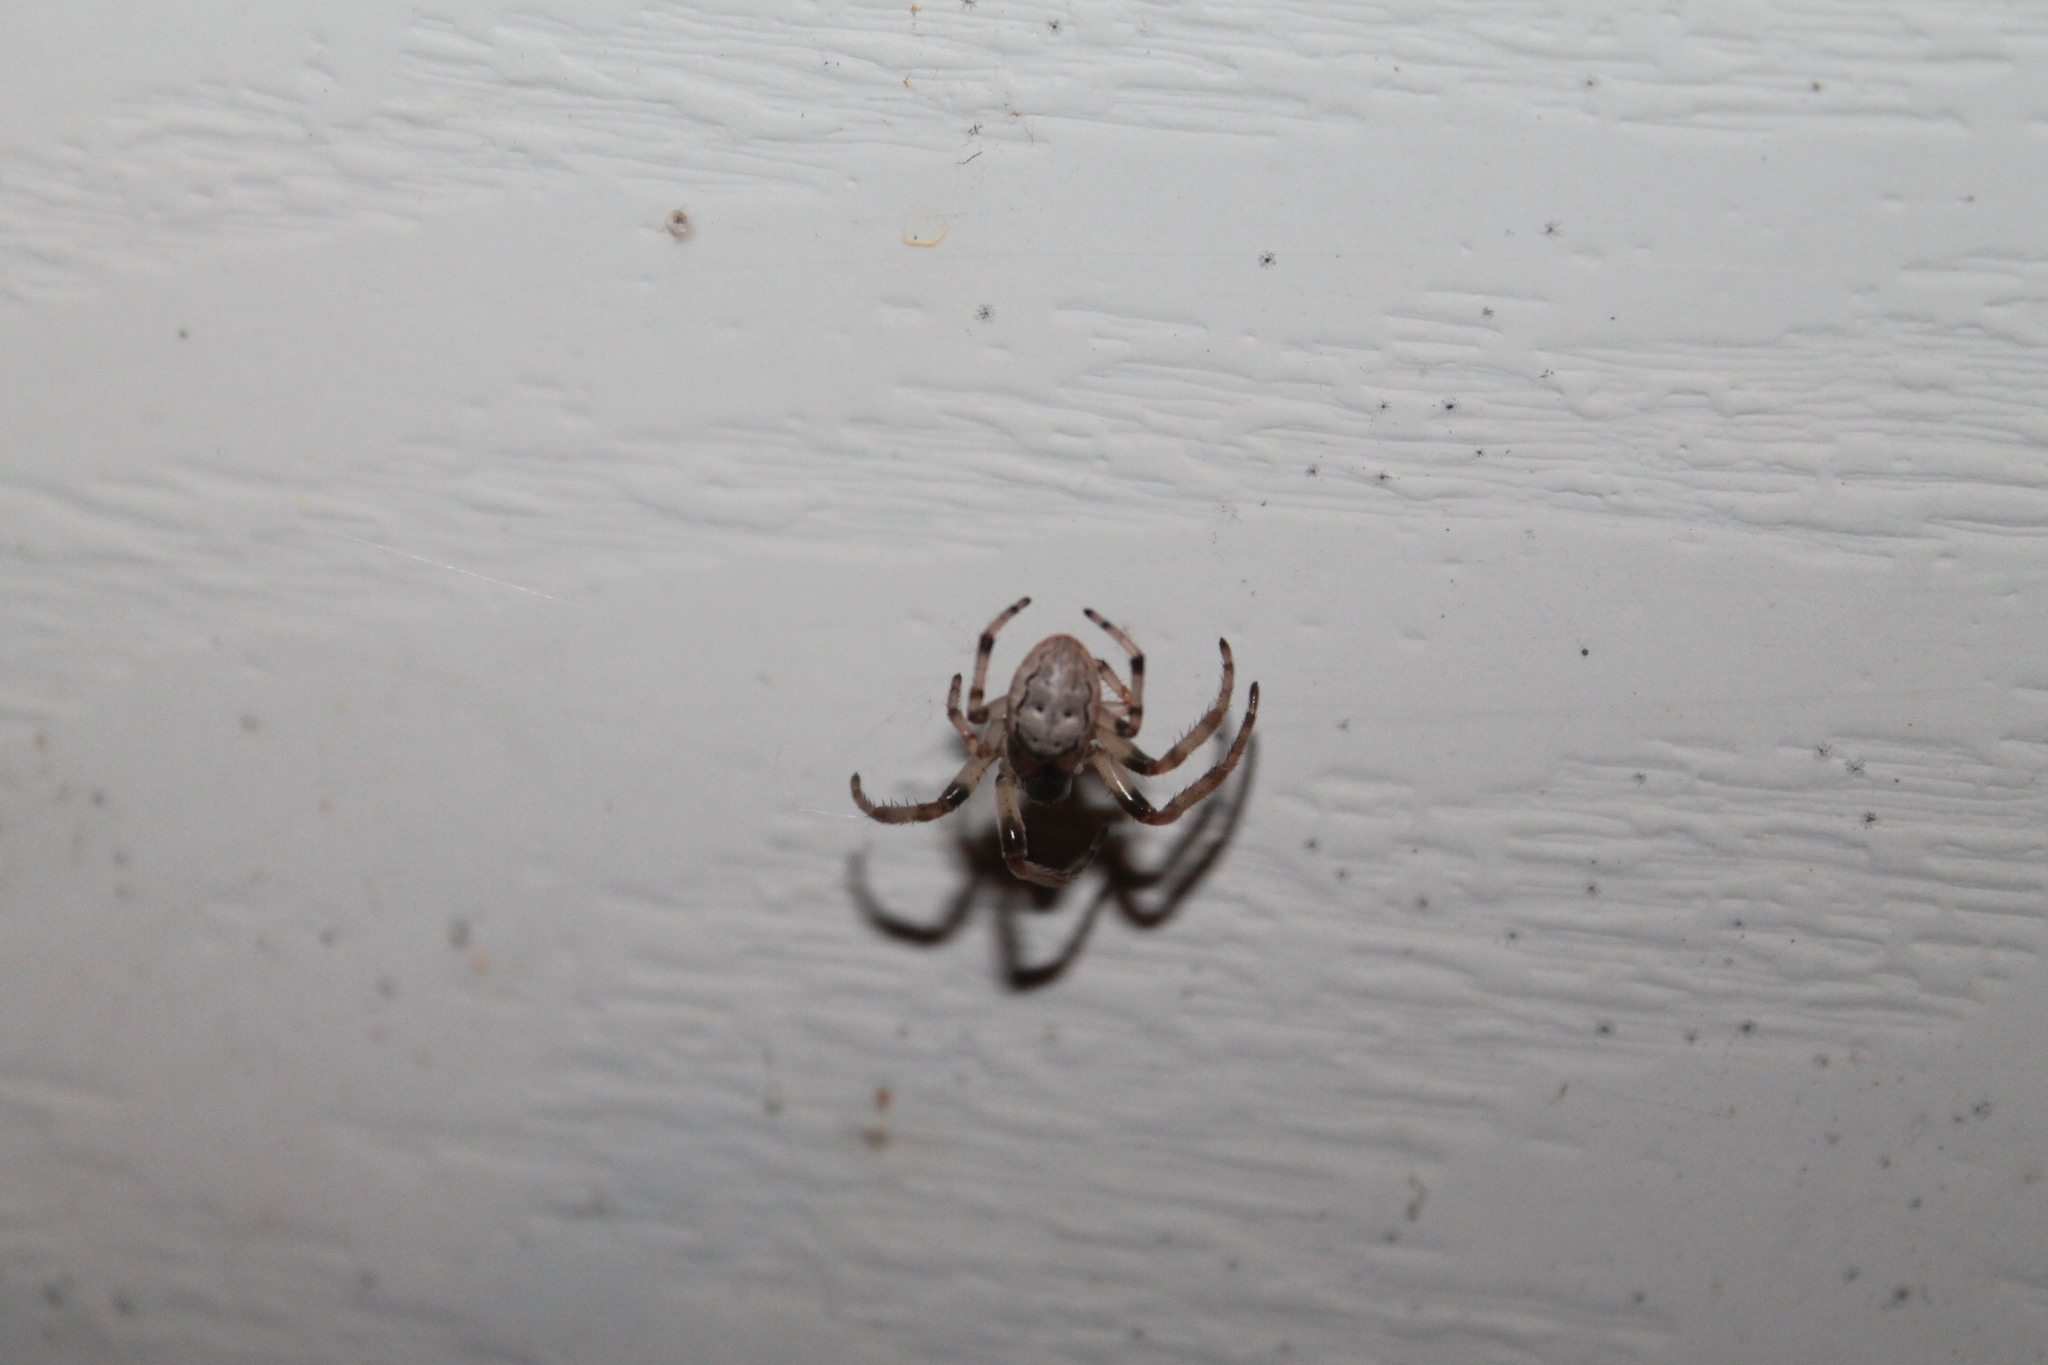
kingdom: Animalia
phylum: Arthropoda
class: Arachnida
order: Araneae
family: Araneidae
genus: Larinioides
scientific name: Larinioides cornutus
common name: Furrow orbweaver
